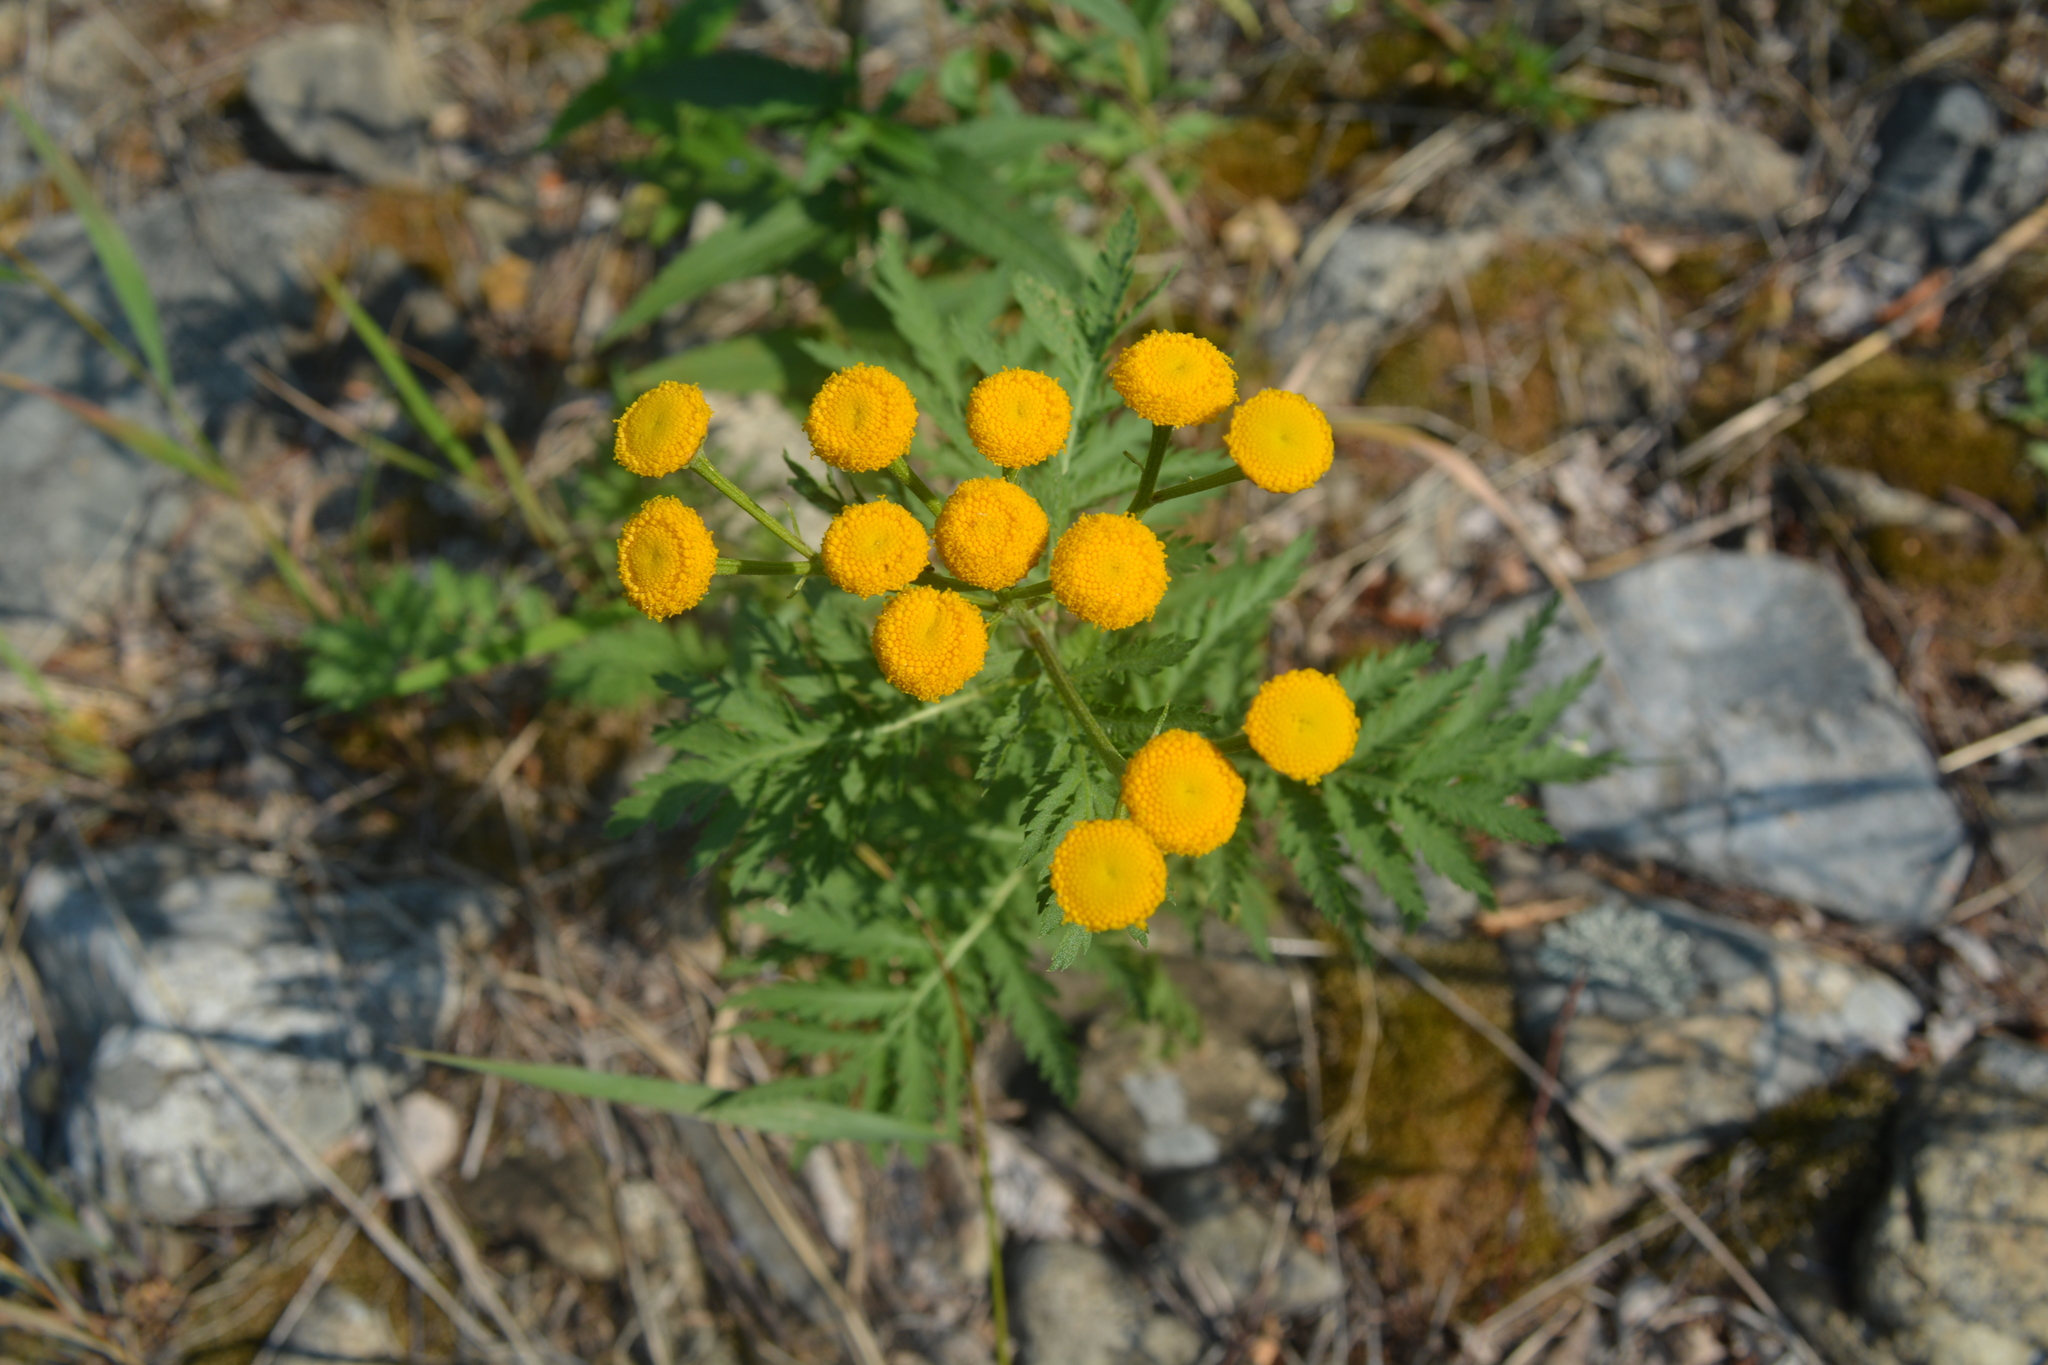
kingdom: Plantae
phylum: Tracheophyta
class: Magnoliopsida
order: Asterales
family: Asteraceae
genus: Tanacetum
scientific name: Tanacetum vulgare
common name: Common tansy
